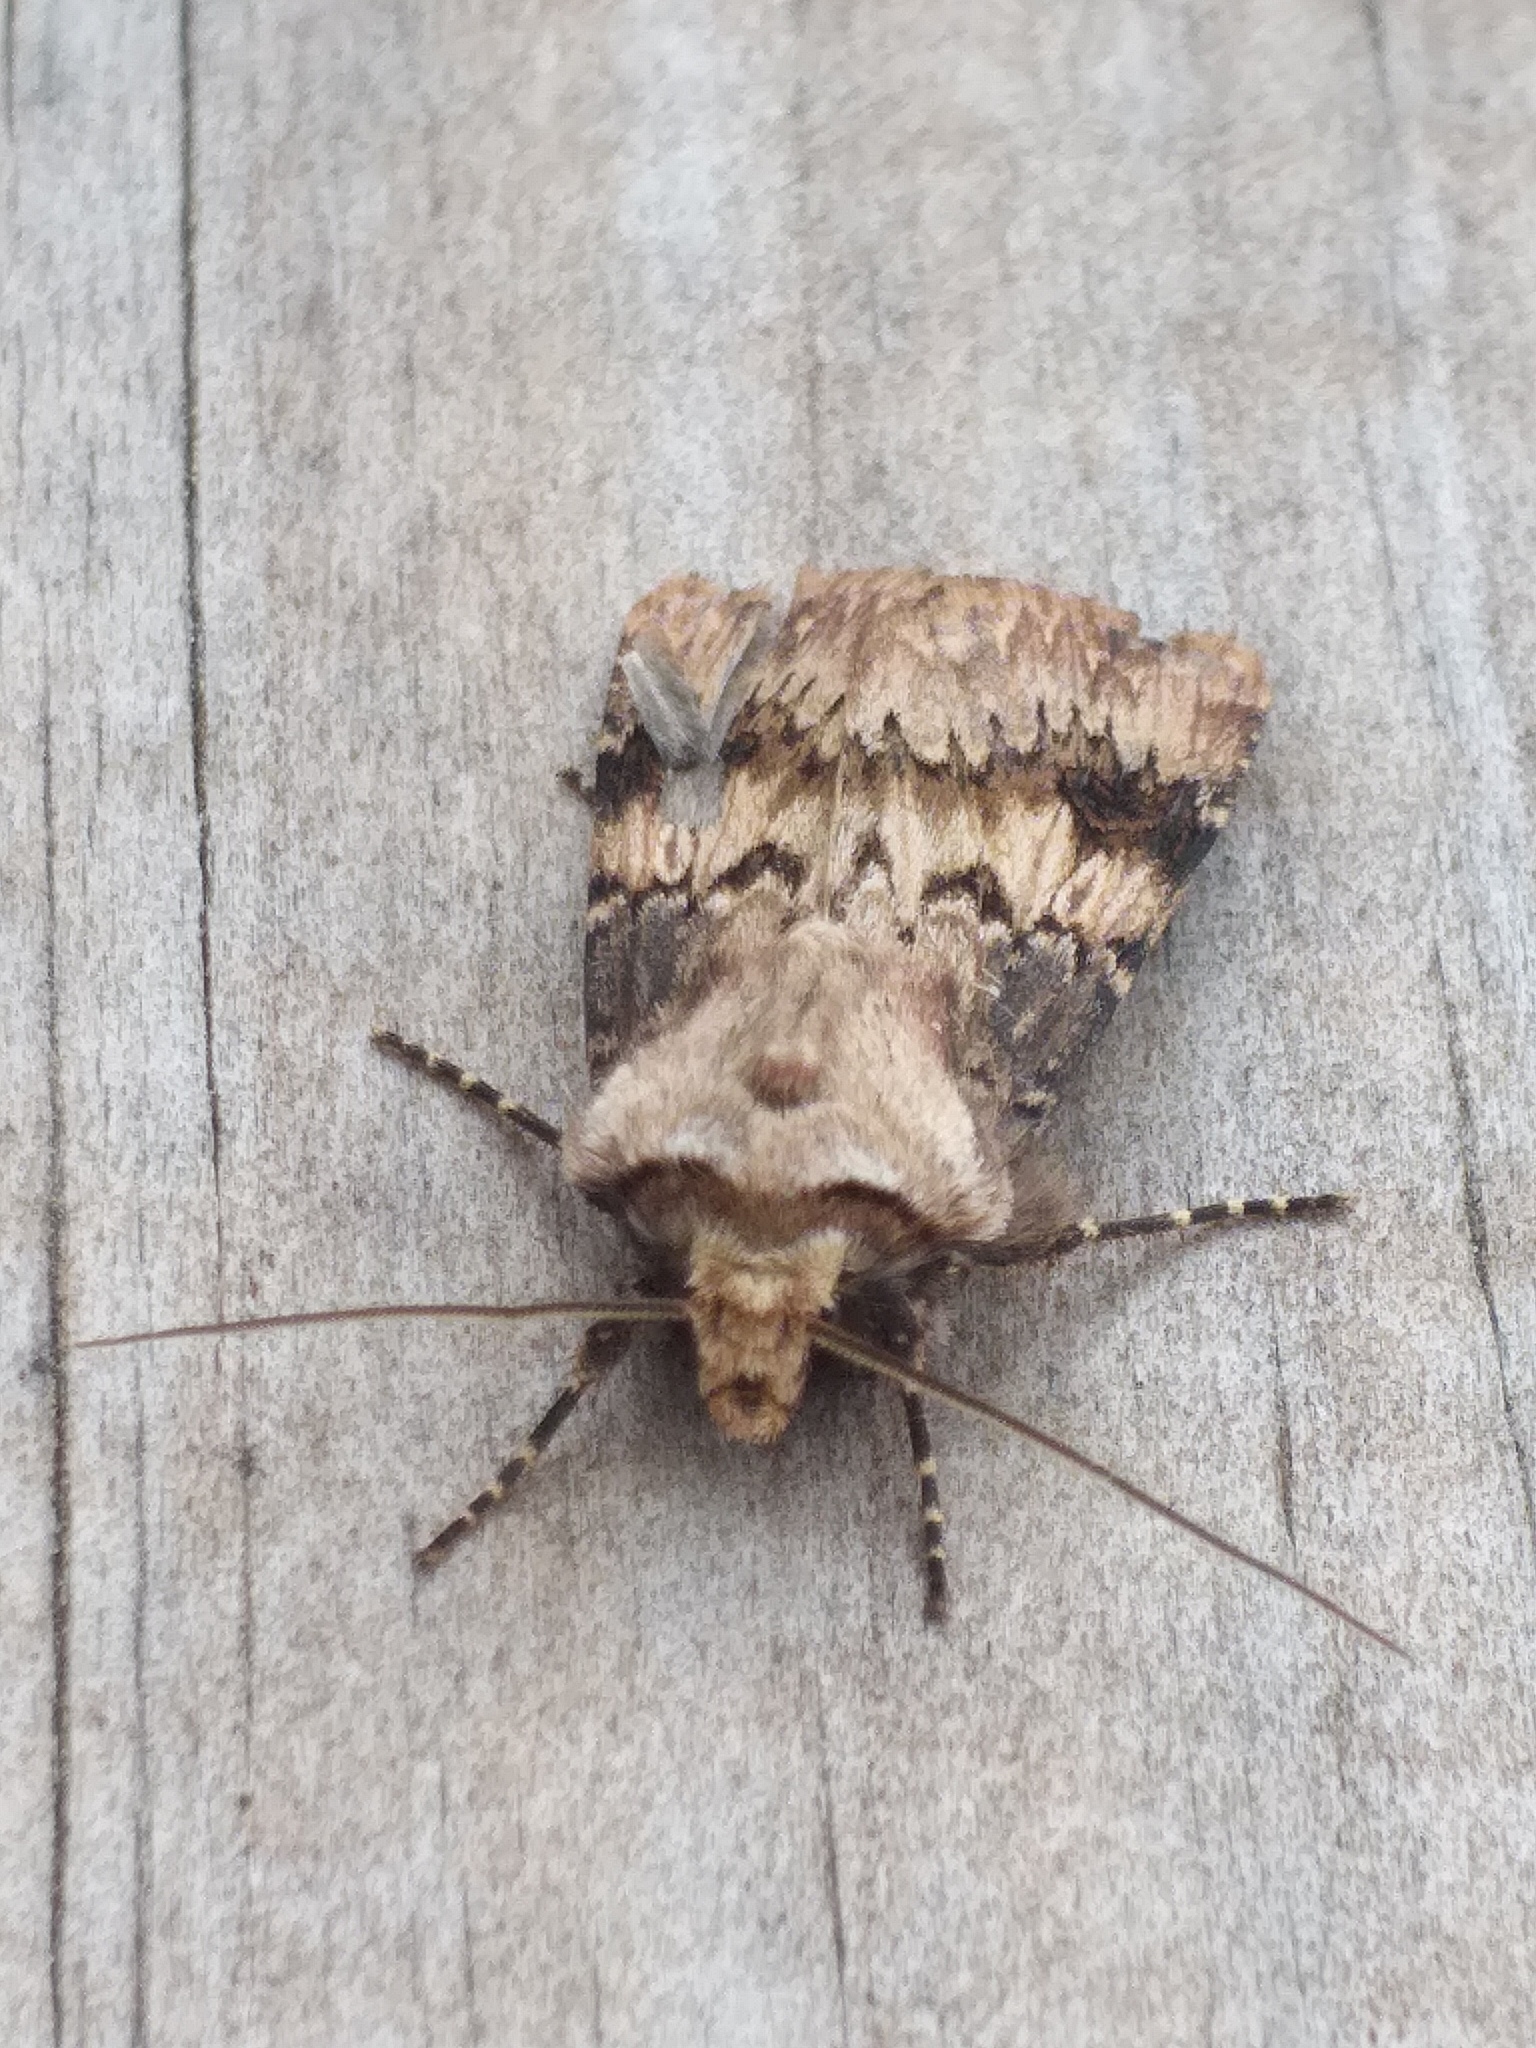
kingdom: Animalia
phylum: Arthropoda
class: Insecta
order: Lepidoptera
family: Noctuidae
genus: Agrotis
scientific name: Agrotis puta
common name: Shuttle-shaped dart
